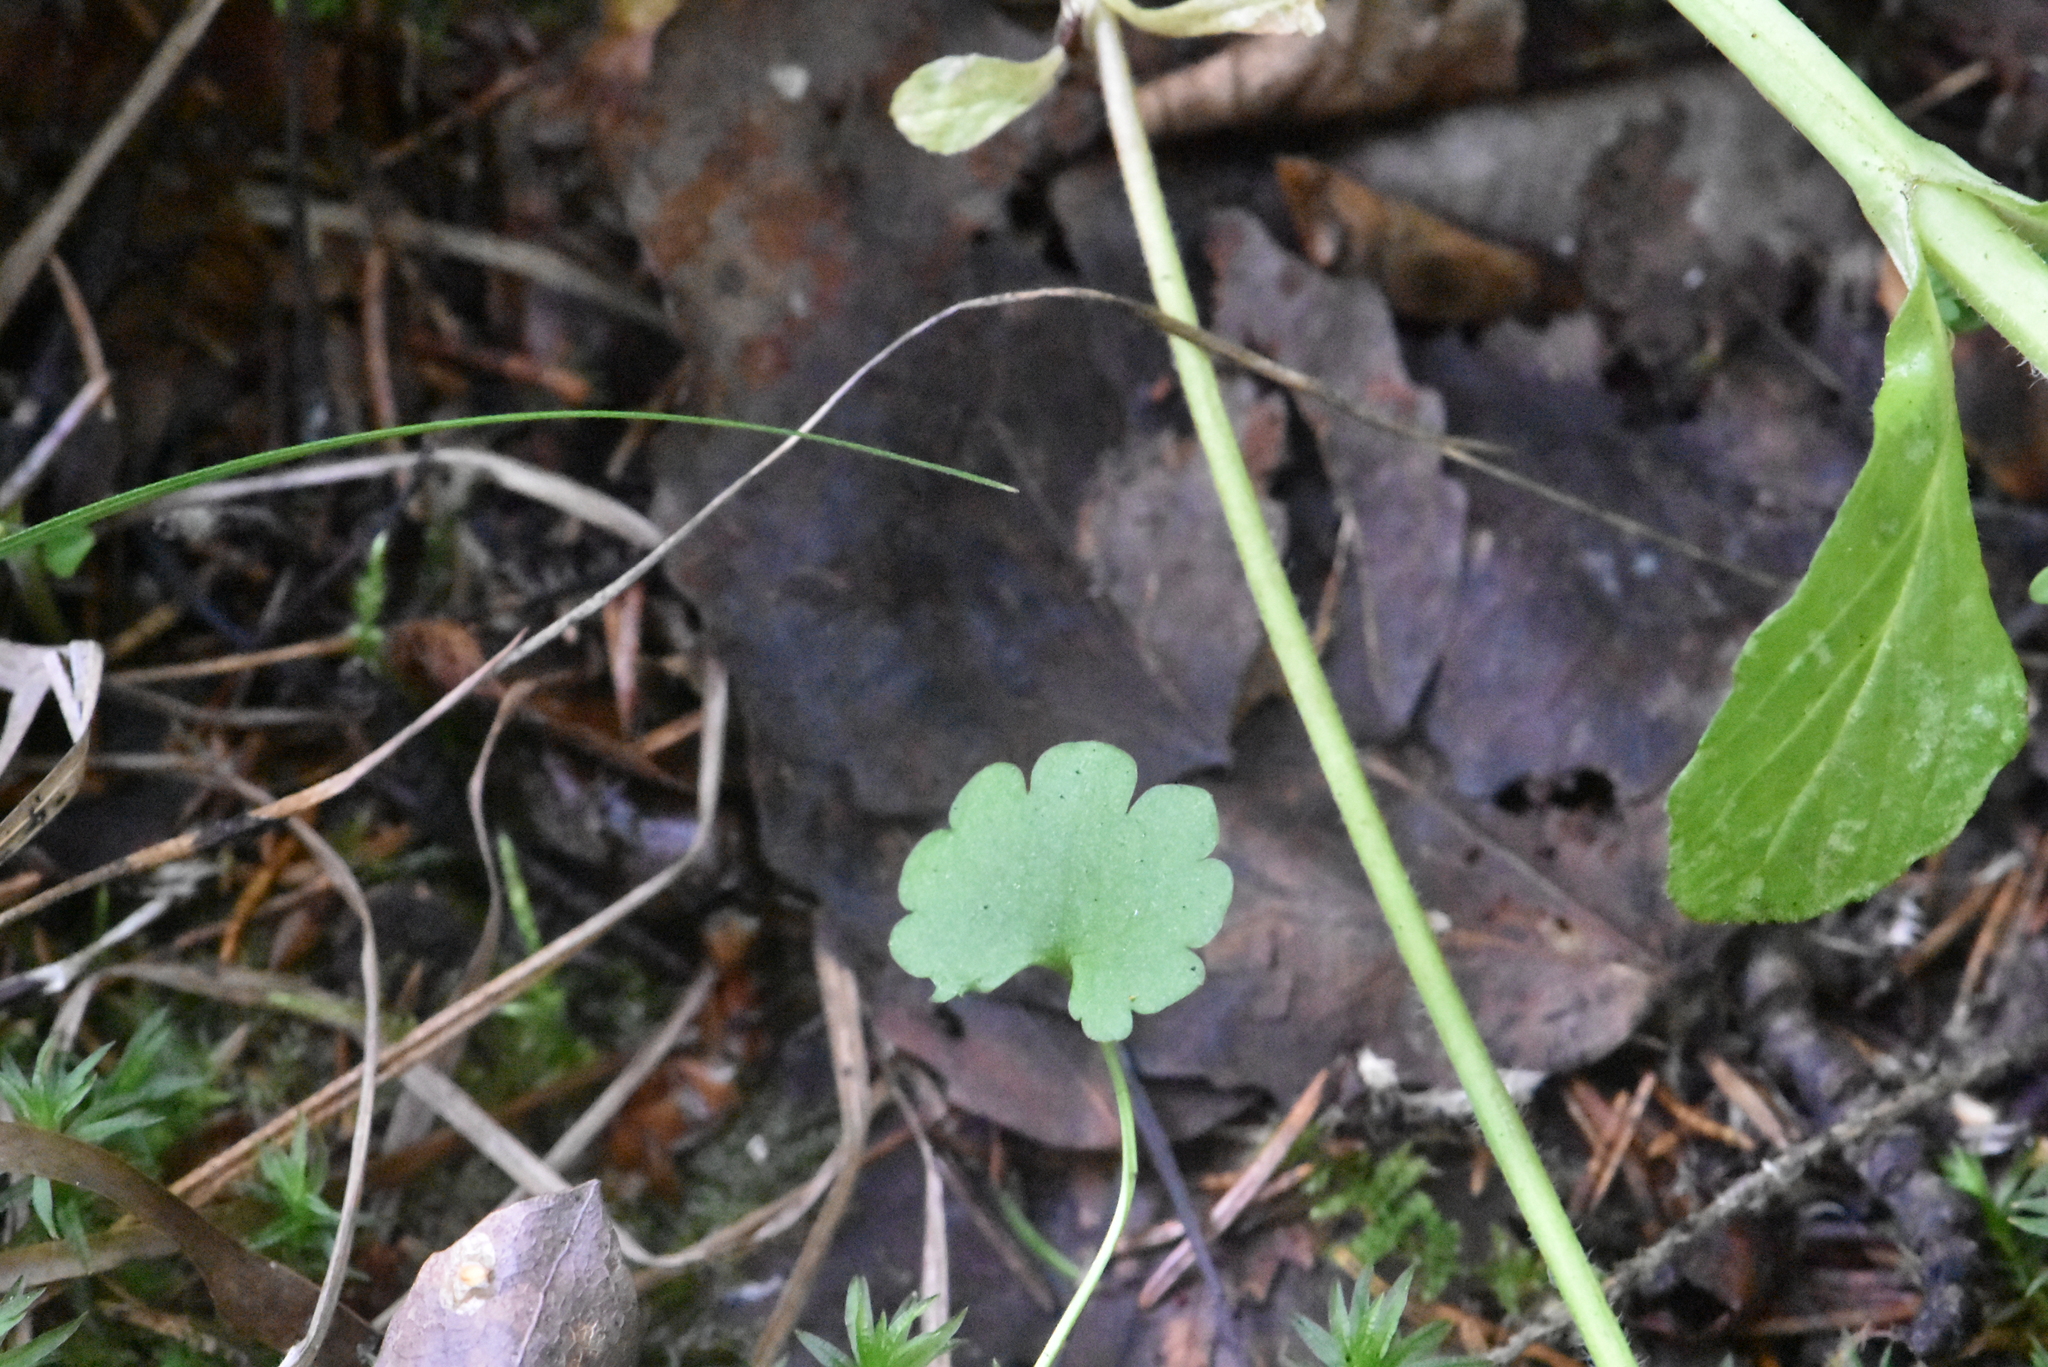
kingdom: Plantae
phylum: Tracheophyta
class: Magnoliopsida
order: Saxifragales
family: Saxifragaceae
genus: Chrysosplenium
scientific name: Chrysosplenium alternifolium
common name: Alternate-leaved golden-saxifrage
